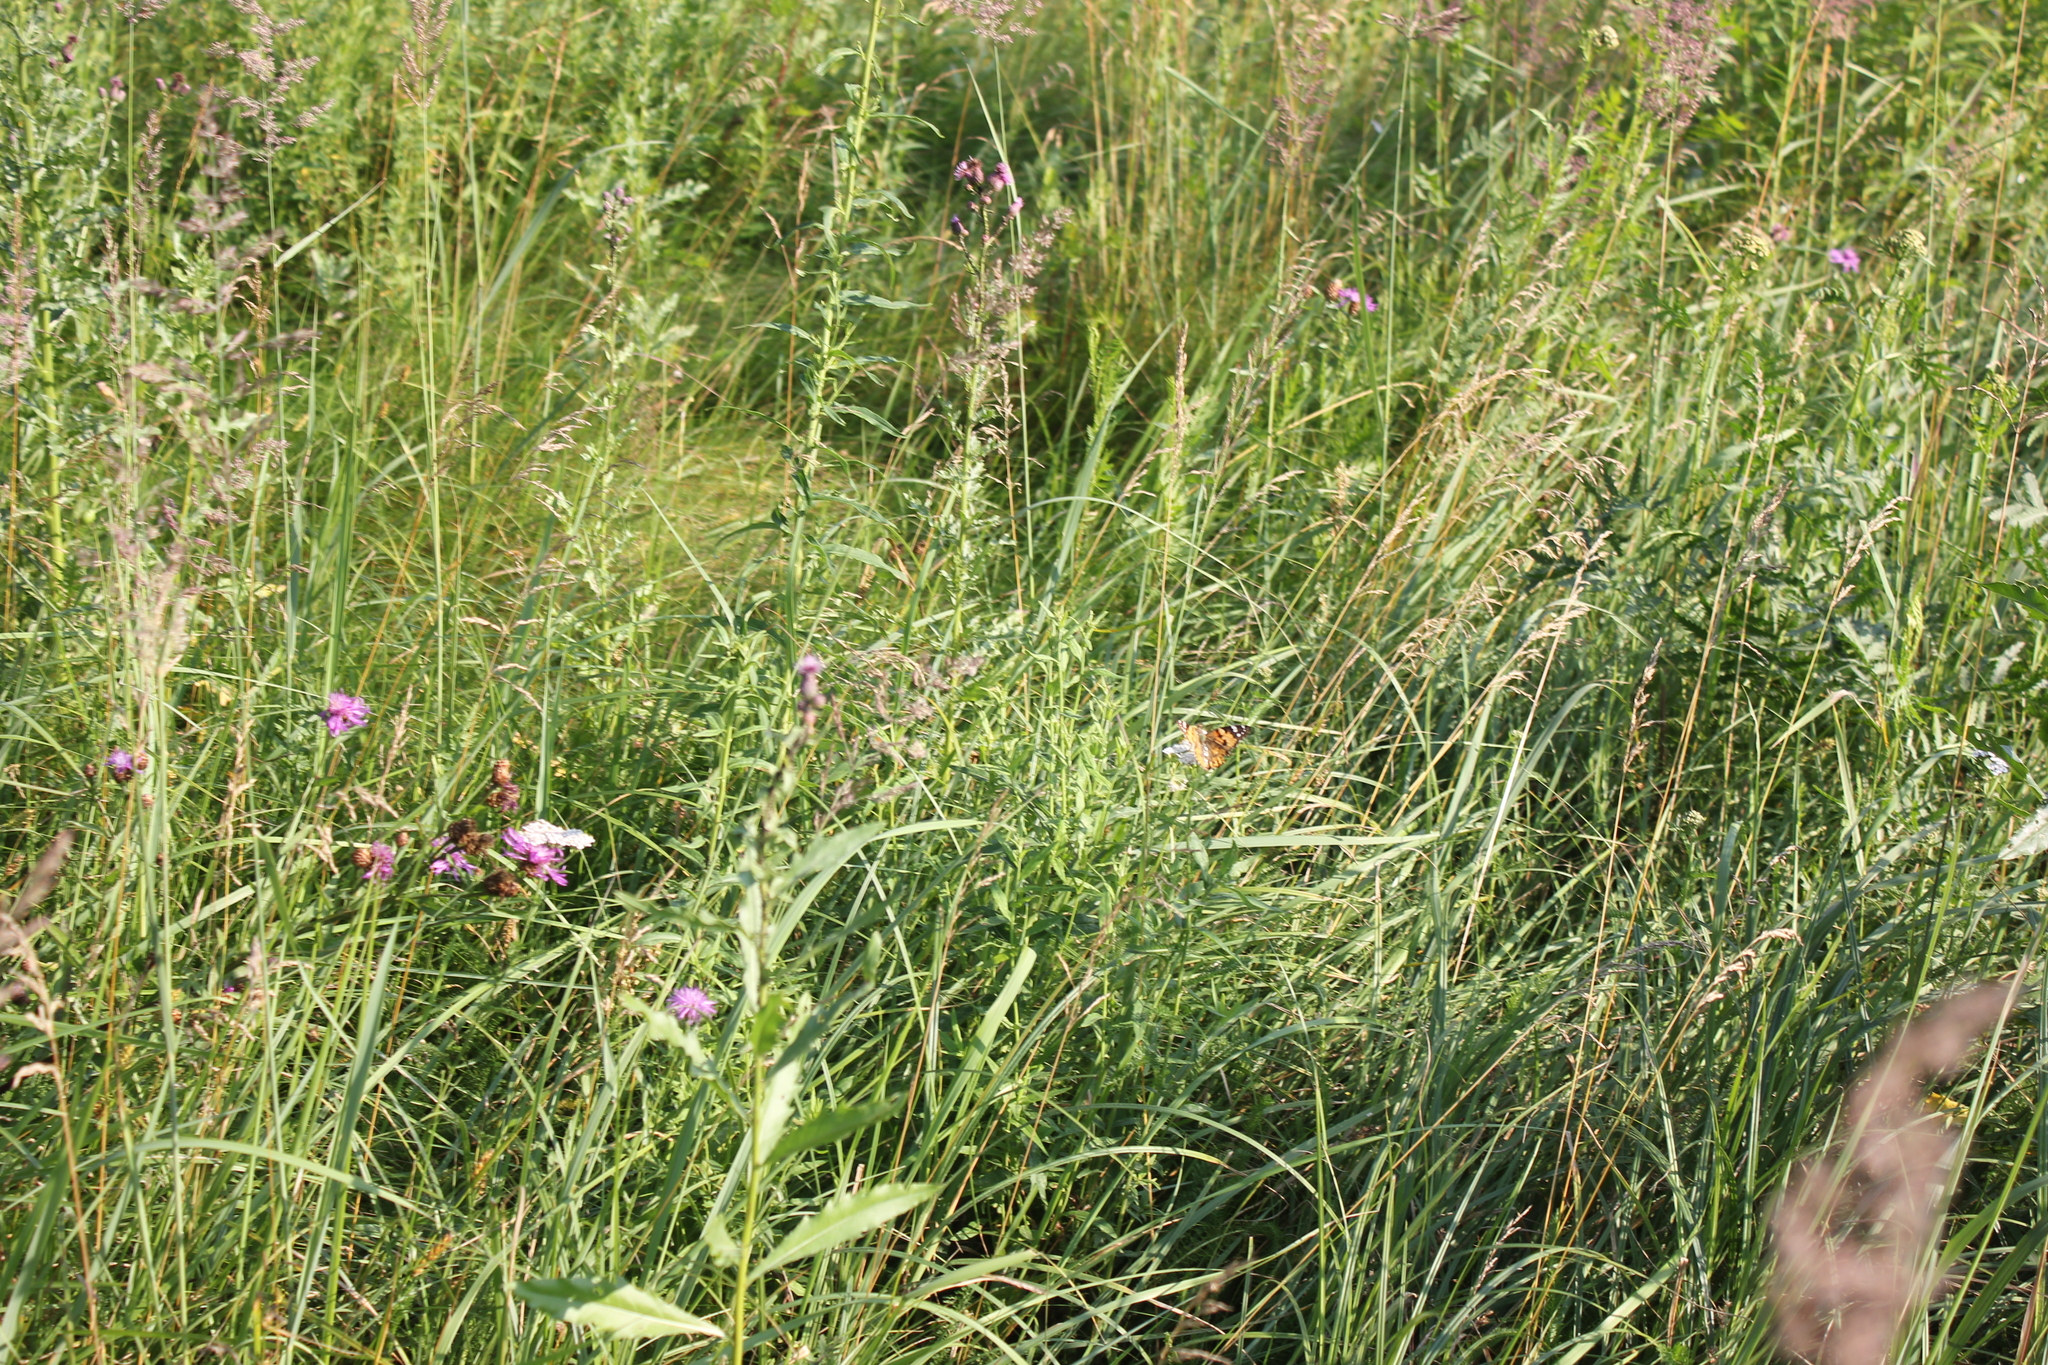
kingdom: Animalia
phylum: Arthropoda
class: Insecta
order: Lepidoptera
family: Nymphalidae
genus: Vanessa
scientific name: Vanessa cardui
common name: Painted lady
